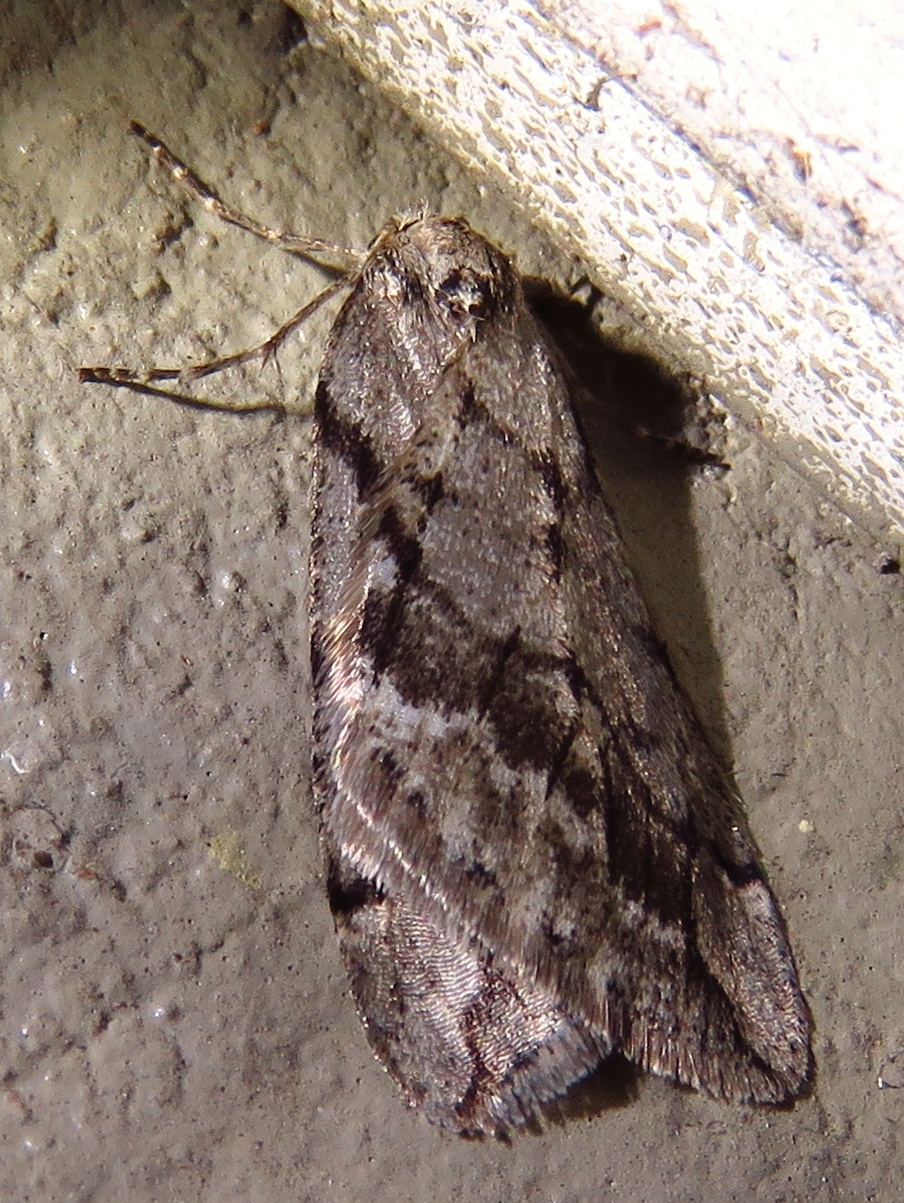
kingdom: Animalia
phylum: Arthropoda
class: Insecta
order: Lepidoptera
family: Geometridae
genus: Paleacrita
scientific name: Paleacrita vernata
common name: Spring cankerworm
